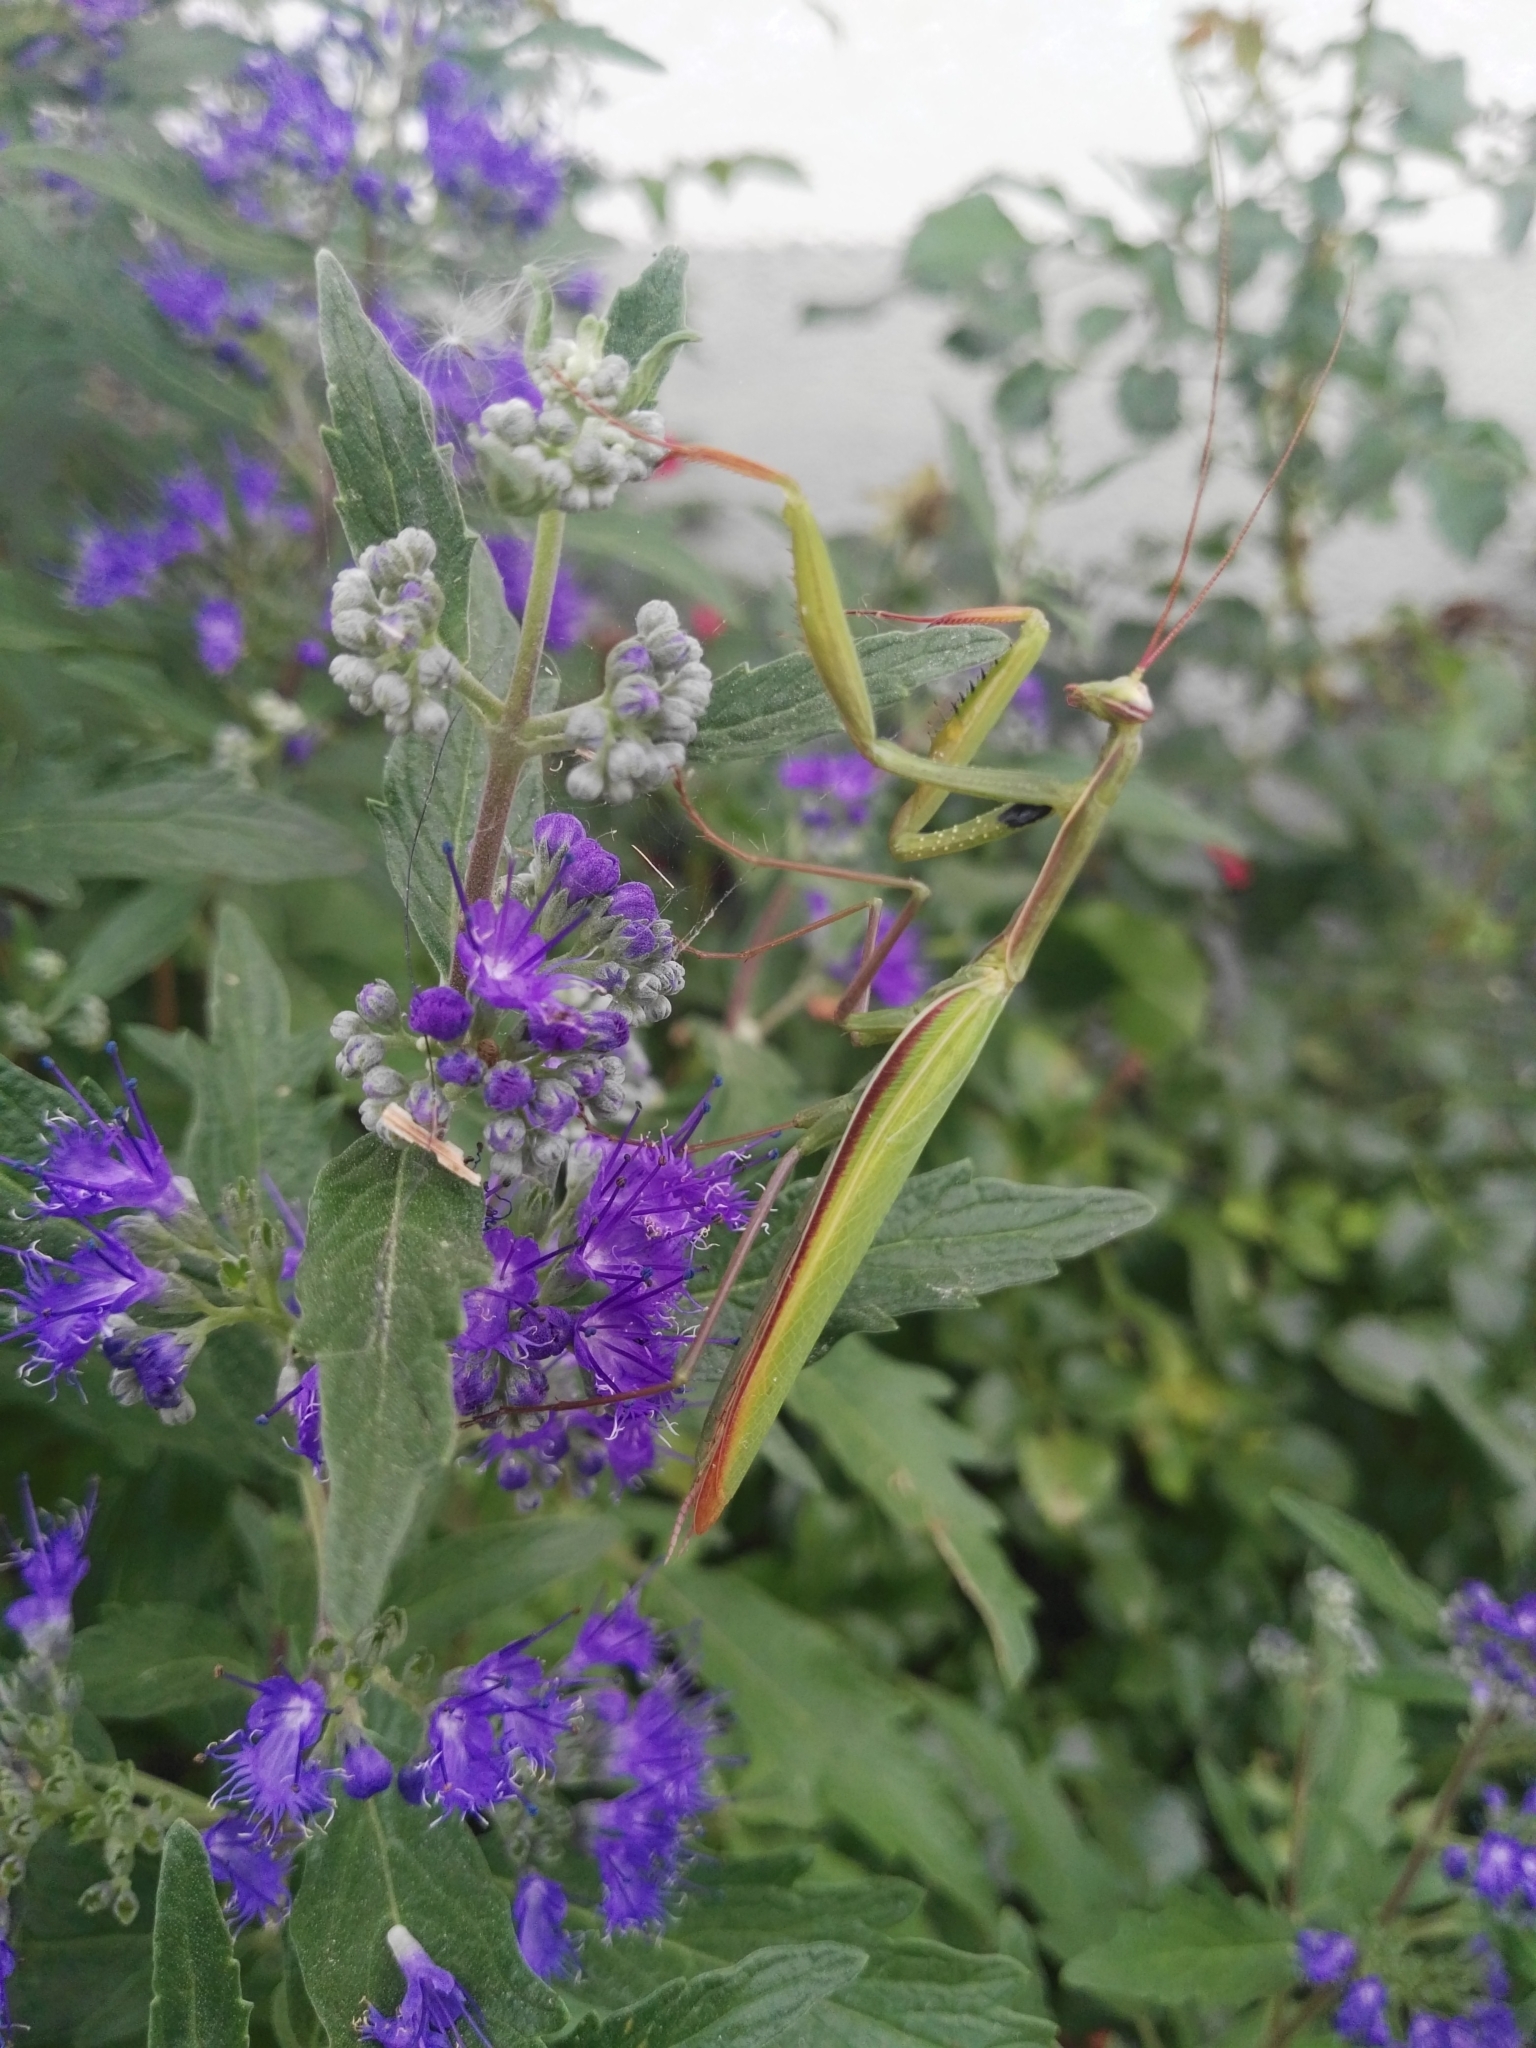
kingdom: Animalia
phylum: Arthropoda
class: Insecta
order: Mantodea
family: Mantidae
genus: Mantis
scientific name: Mantis religiosa
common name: Praying mantis
